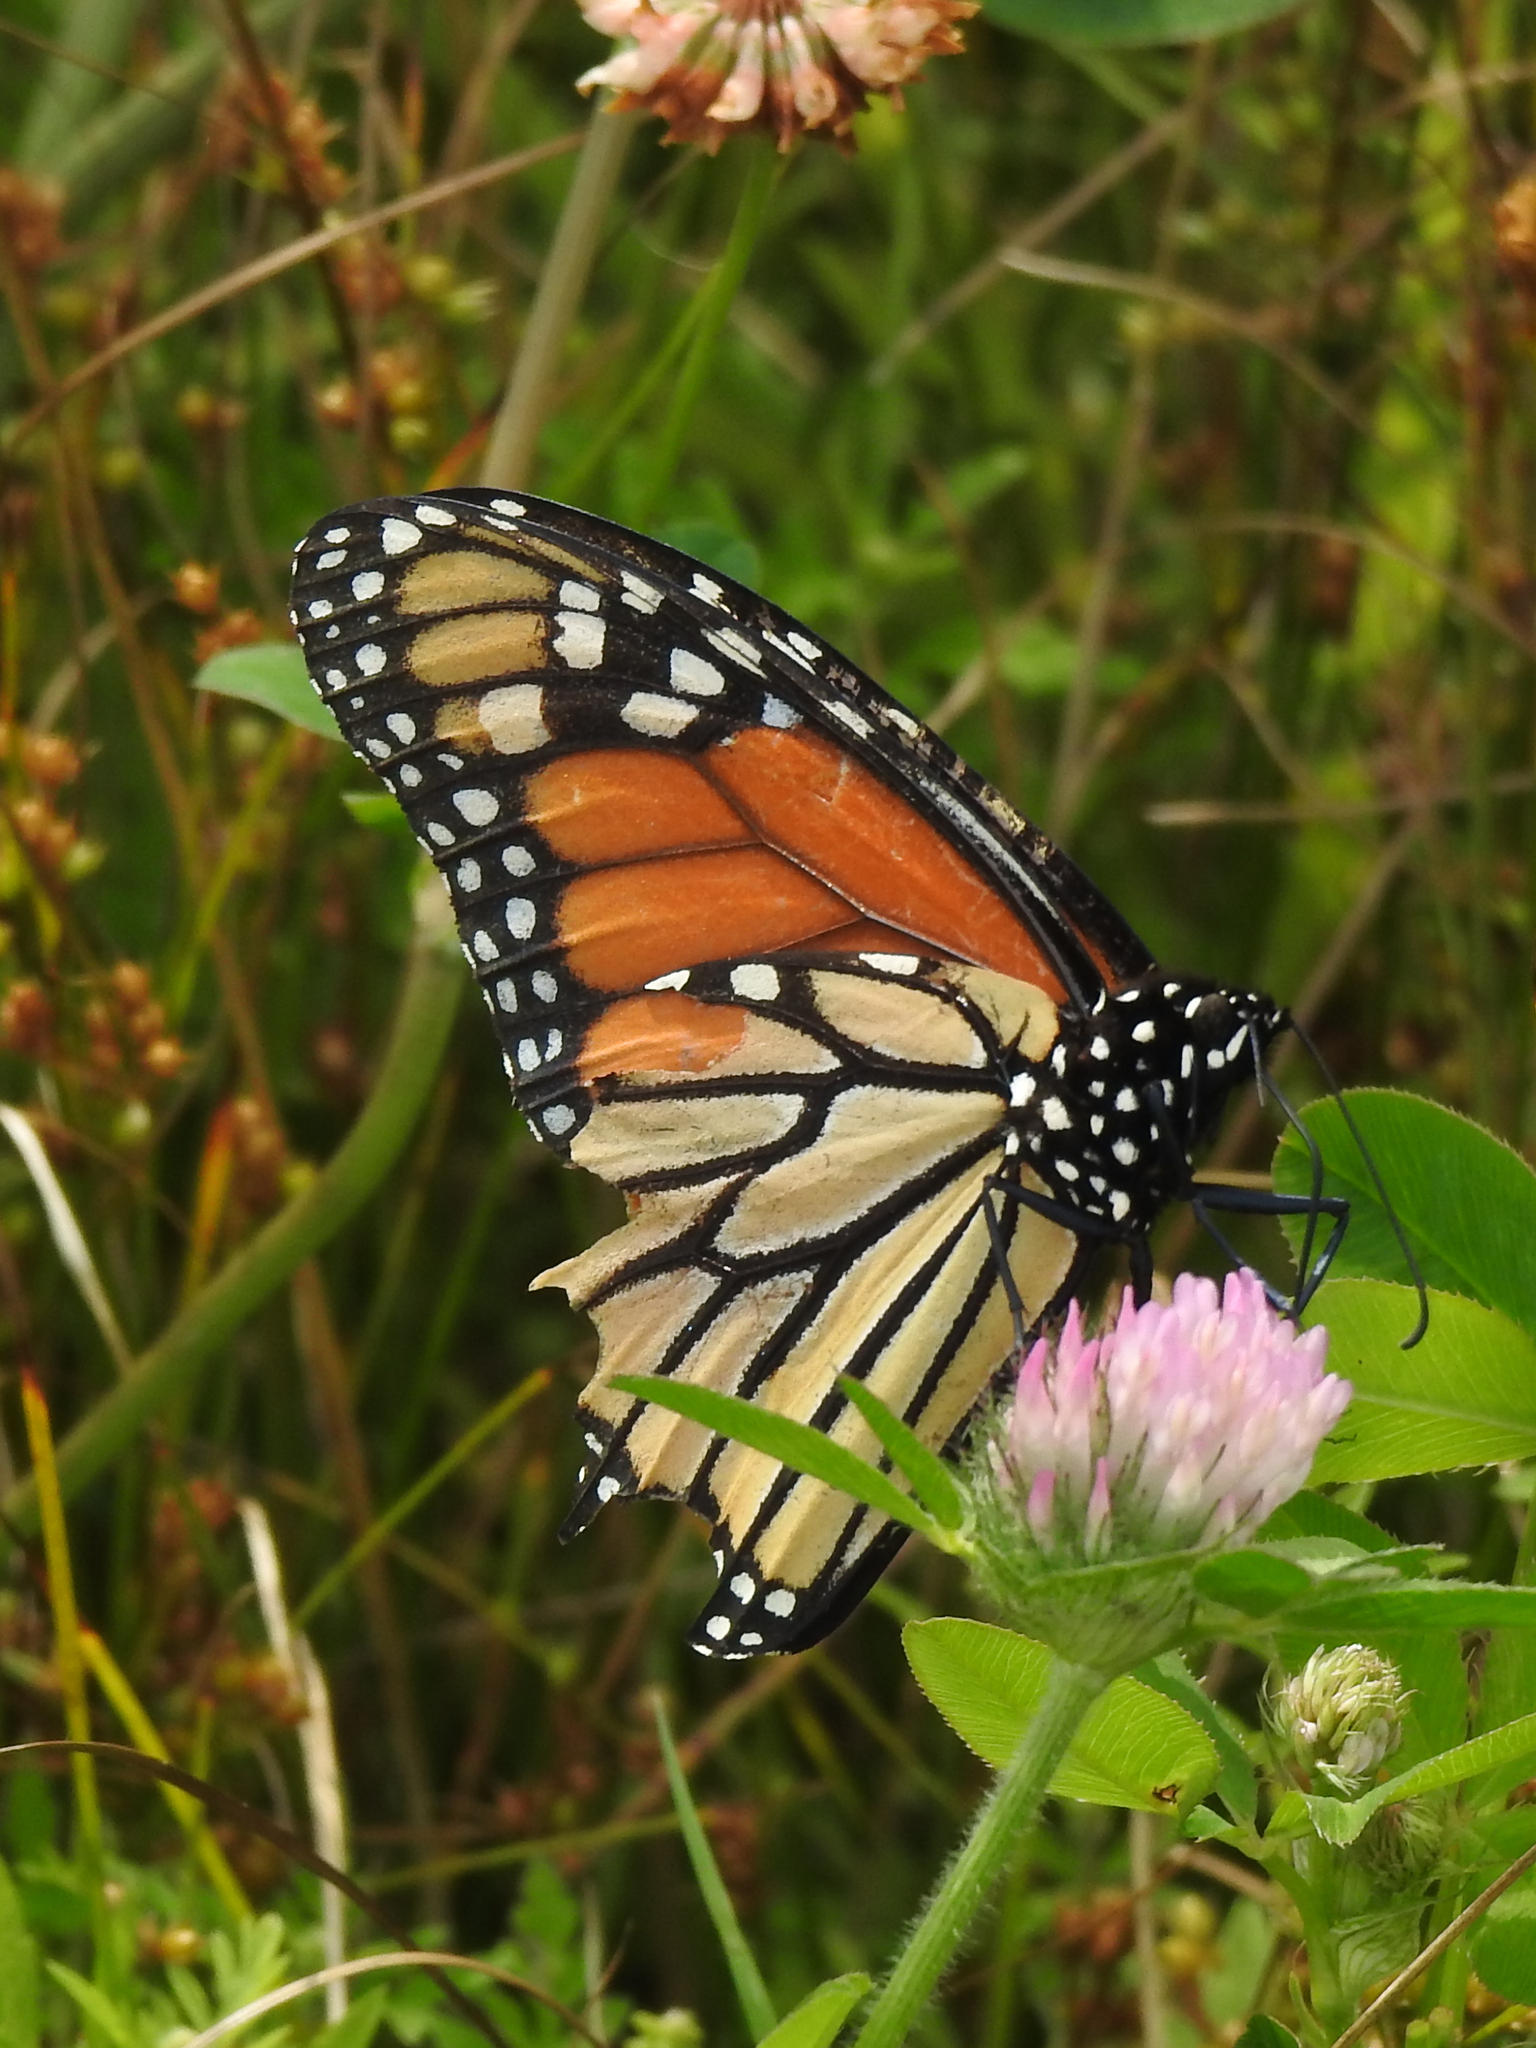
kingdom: Animalia
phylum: Arthropoda
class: Insecta
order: Lepidoptera
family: Nymphalidae
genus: Danaus
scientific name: Danaus plexippus
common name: Monarch
